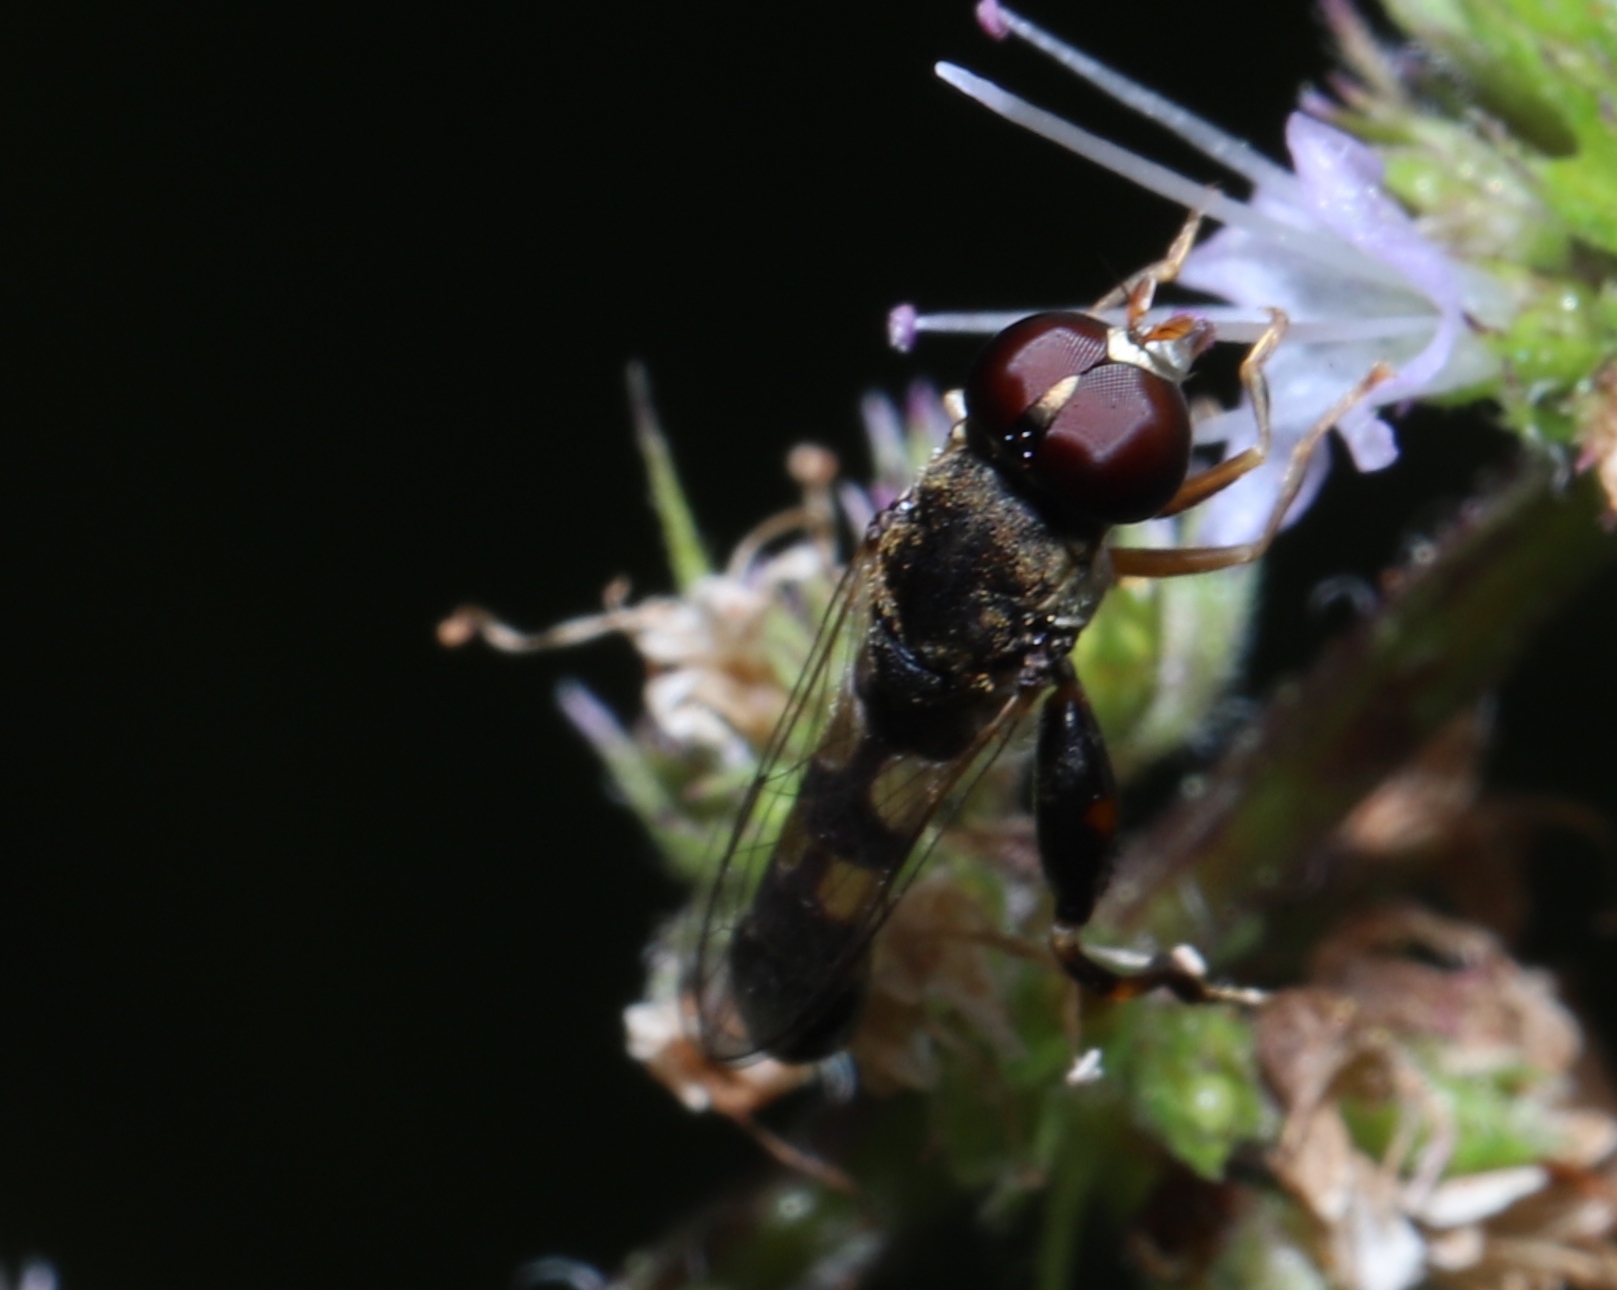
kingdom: Animalia
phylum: Arthropoda
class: Insecta
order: Diptera
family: Syrphidae
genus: Syritta
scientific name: Syritta pipiens
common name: Hover fly
